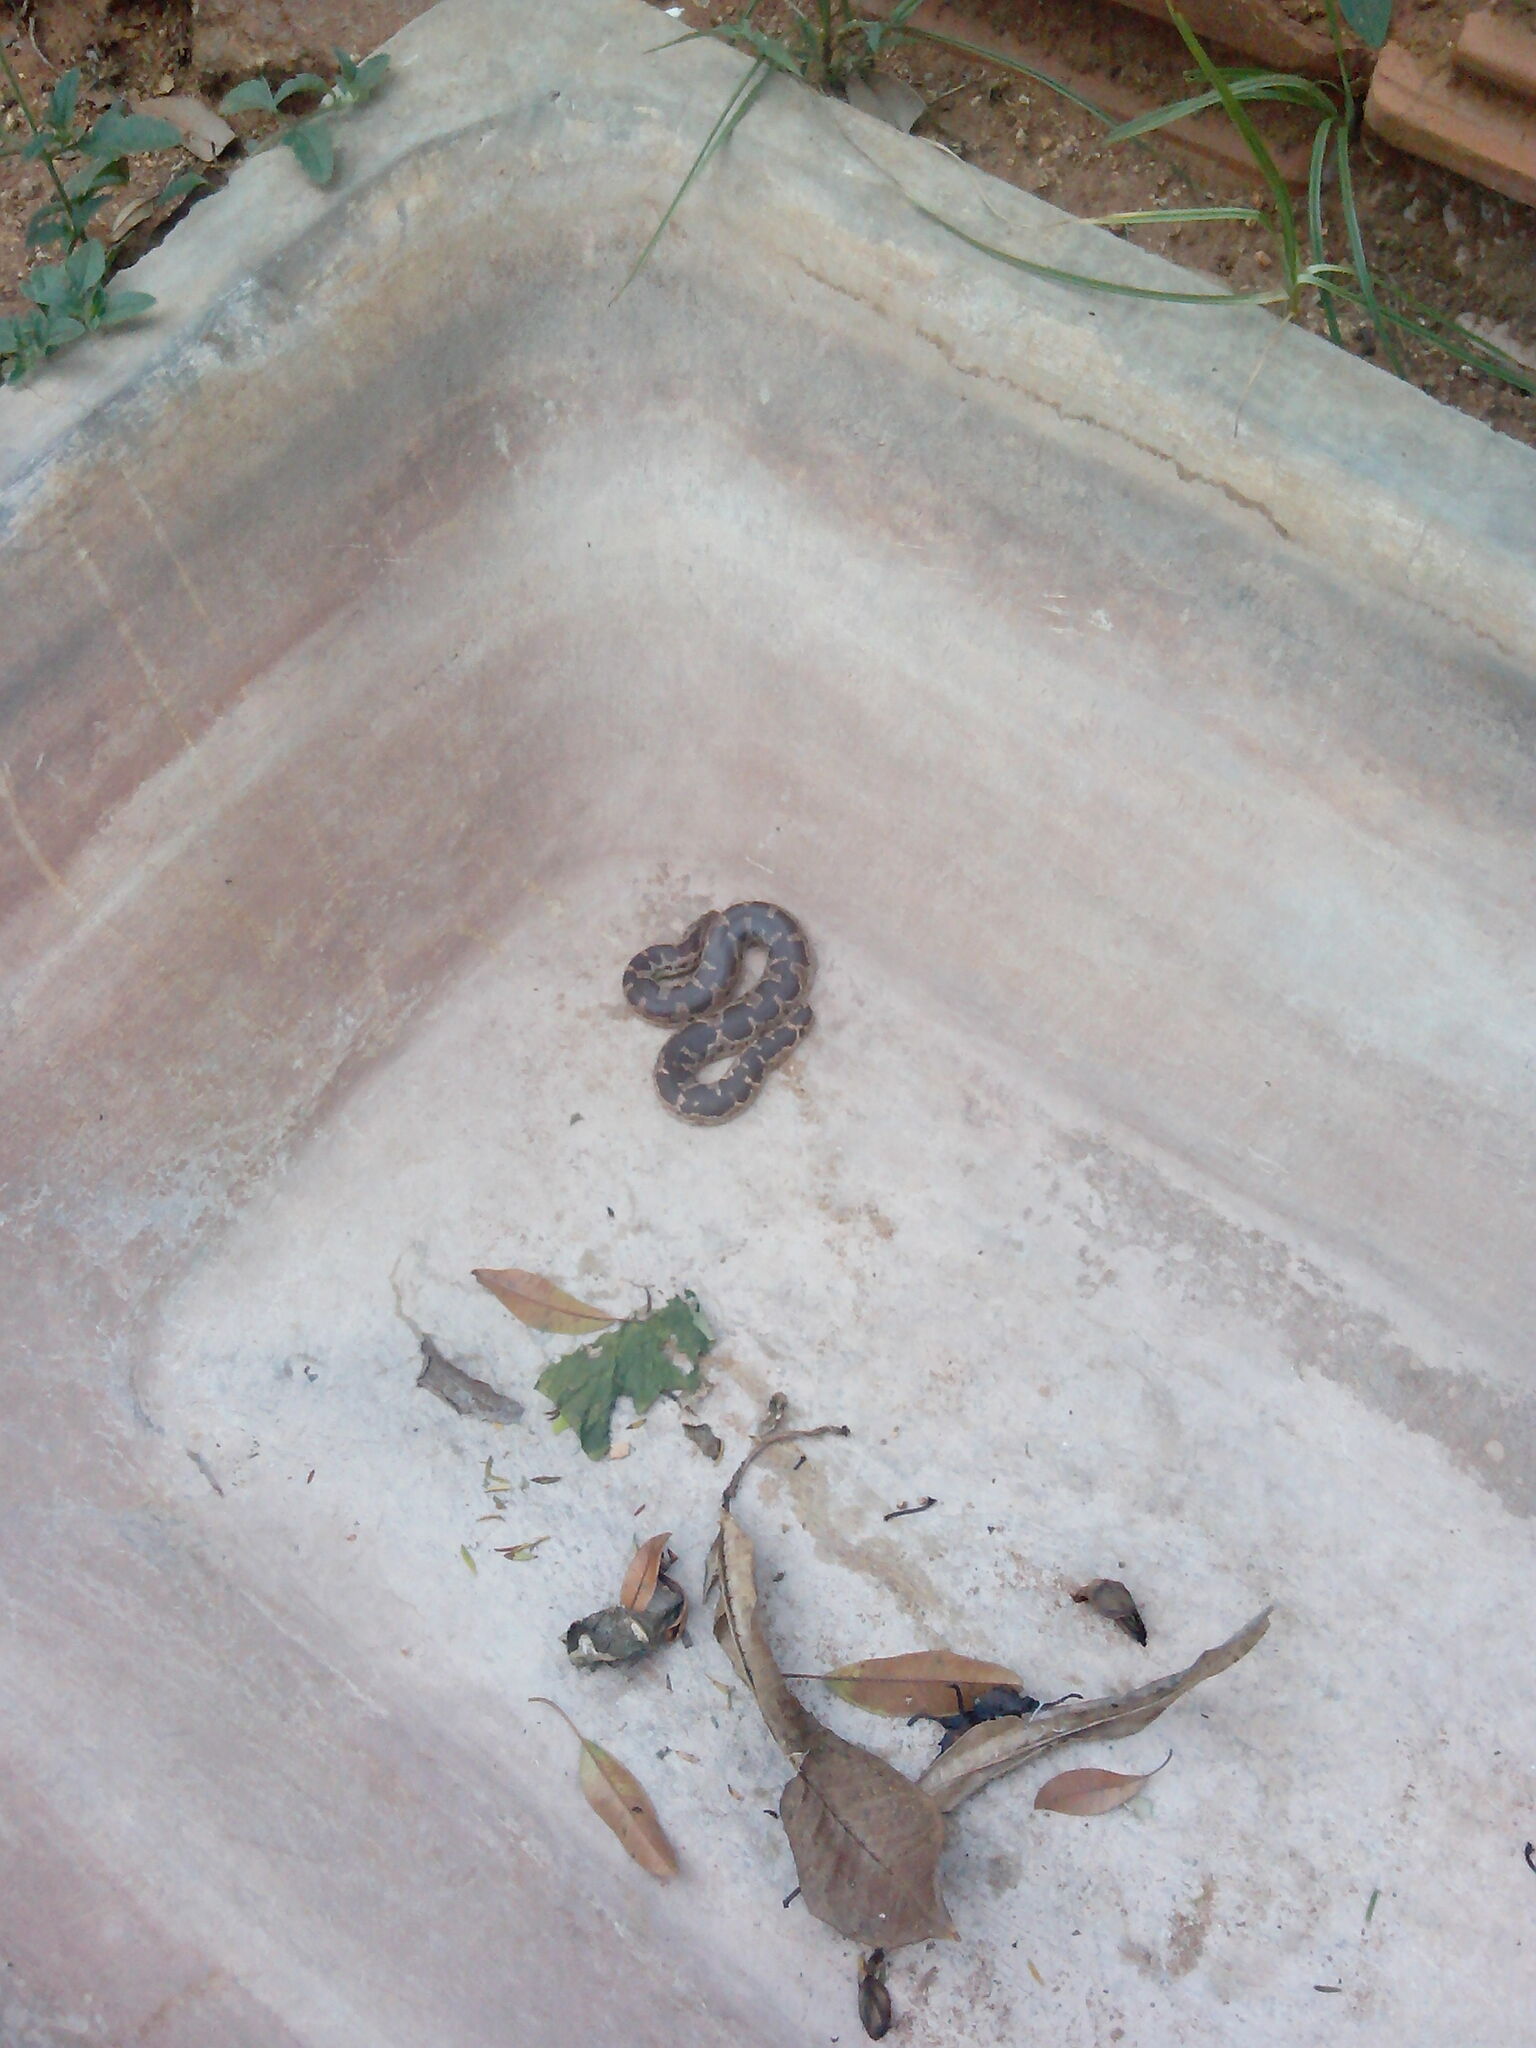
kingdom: Animalia
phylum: Chordata
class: Squamata
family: Boidae
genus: Eryx
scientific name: Eryx conicus
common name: Rough-tailed sand boa
